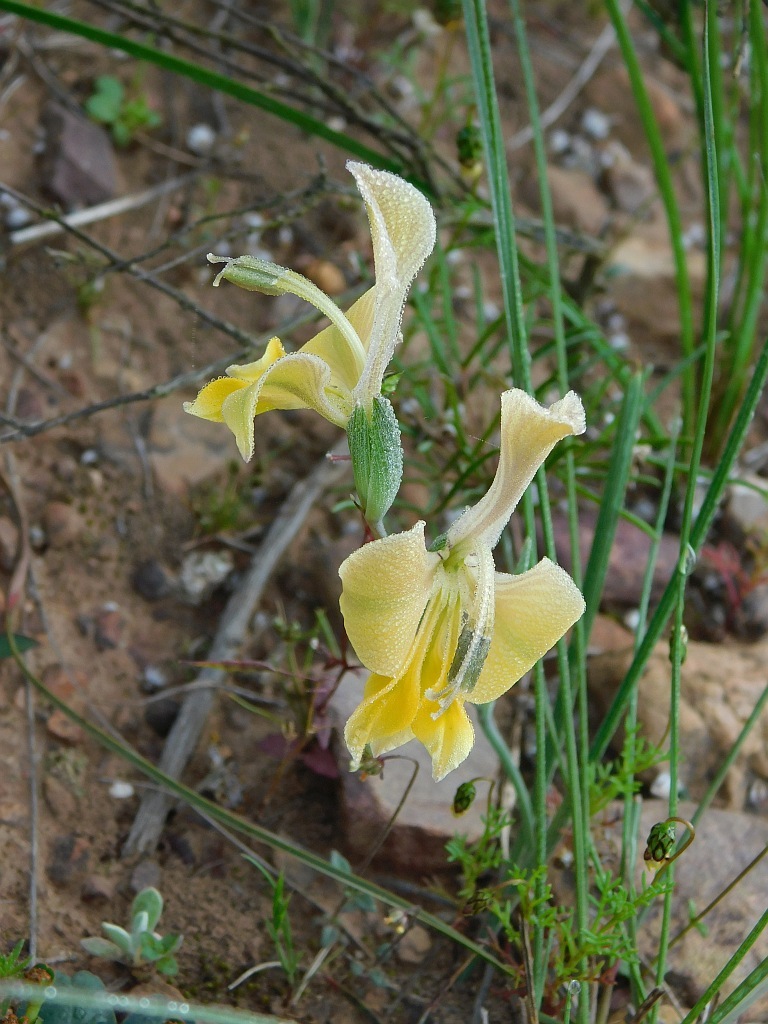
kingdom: Plantae
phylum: Tracheophyta
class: Liliopsida
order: Asparagales
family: Iridaceae
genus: Gladiolus
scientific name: Gladiolus virescens
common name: Yellow kalkoentjie
